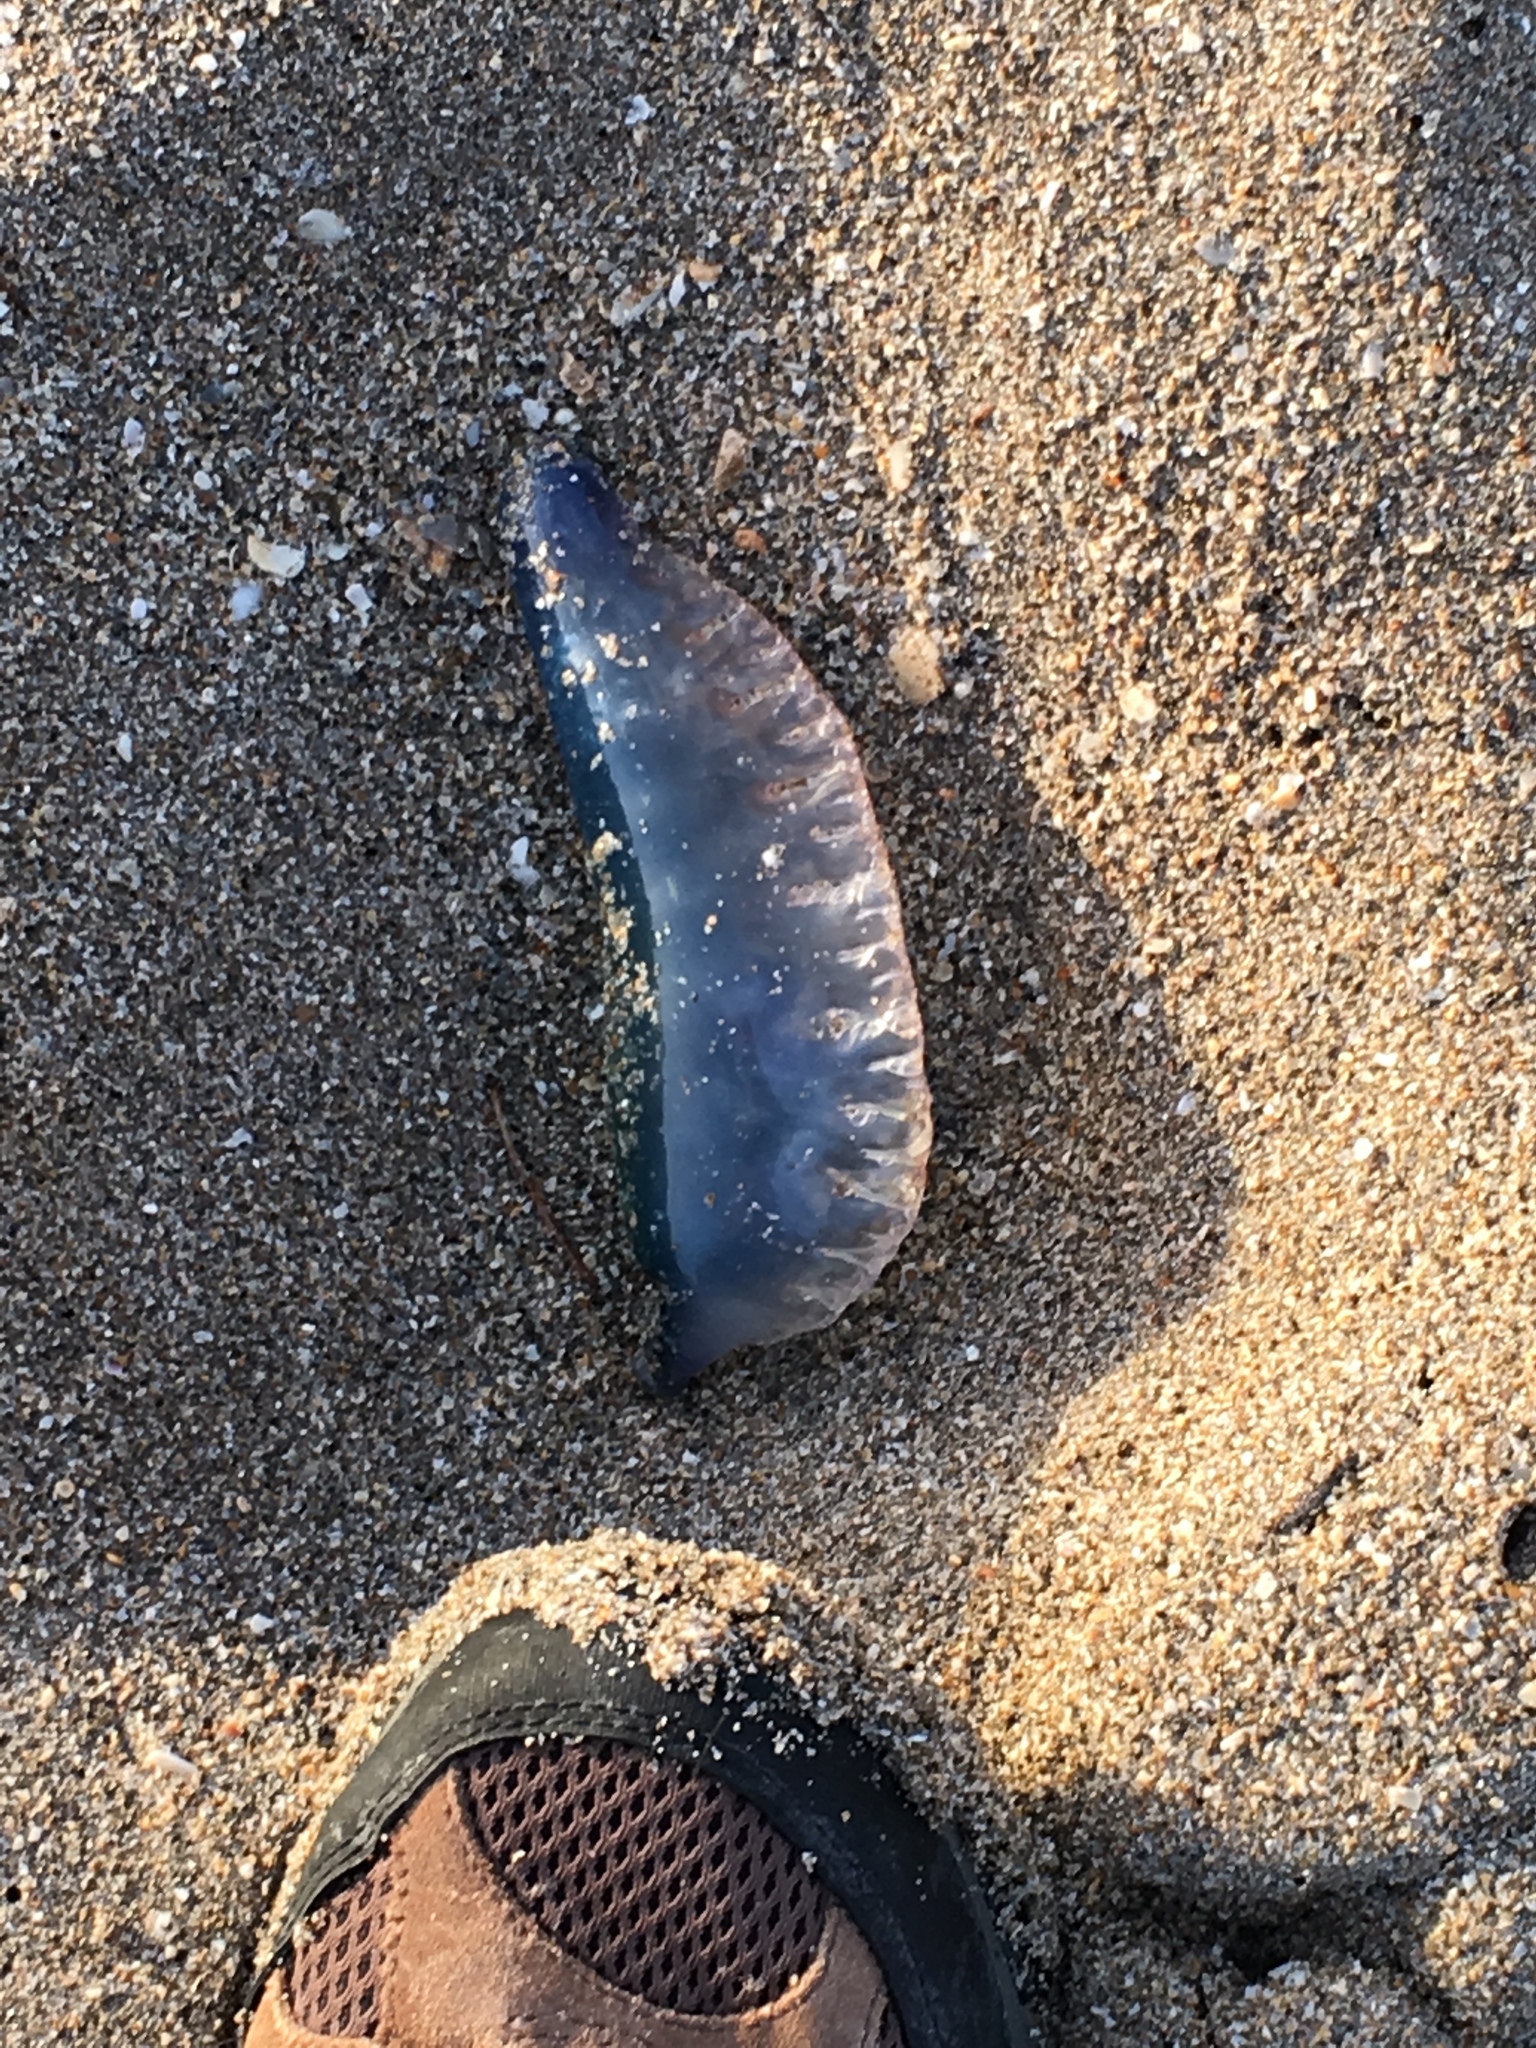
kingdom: Animalia
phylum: Cnidaria
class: Hydrozoa
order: Siphonophorae
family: Physaliidae
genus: Physalia
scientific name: Physalia physalis
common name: Portuguese man-of-war
